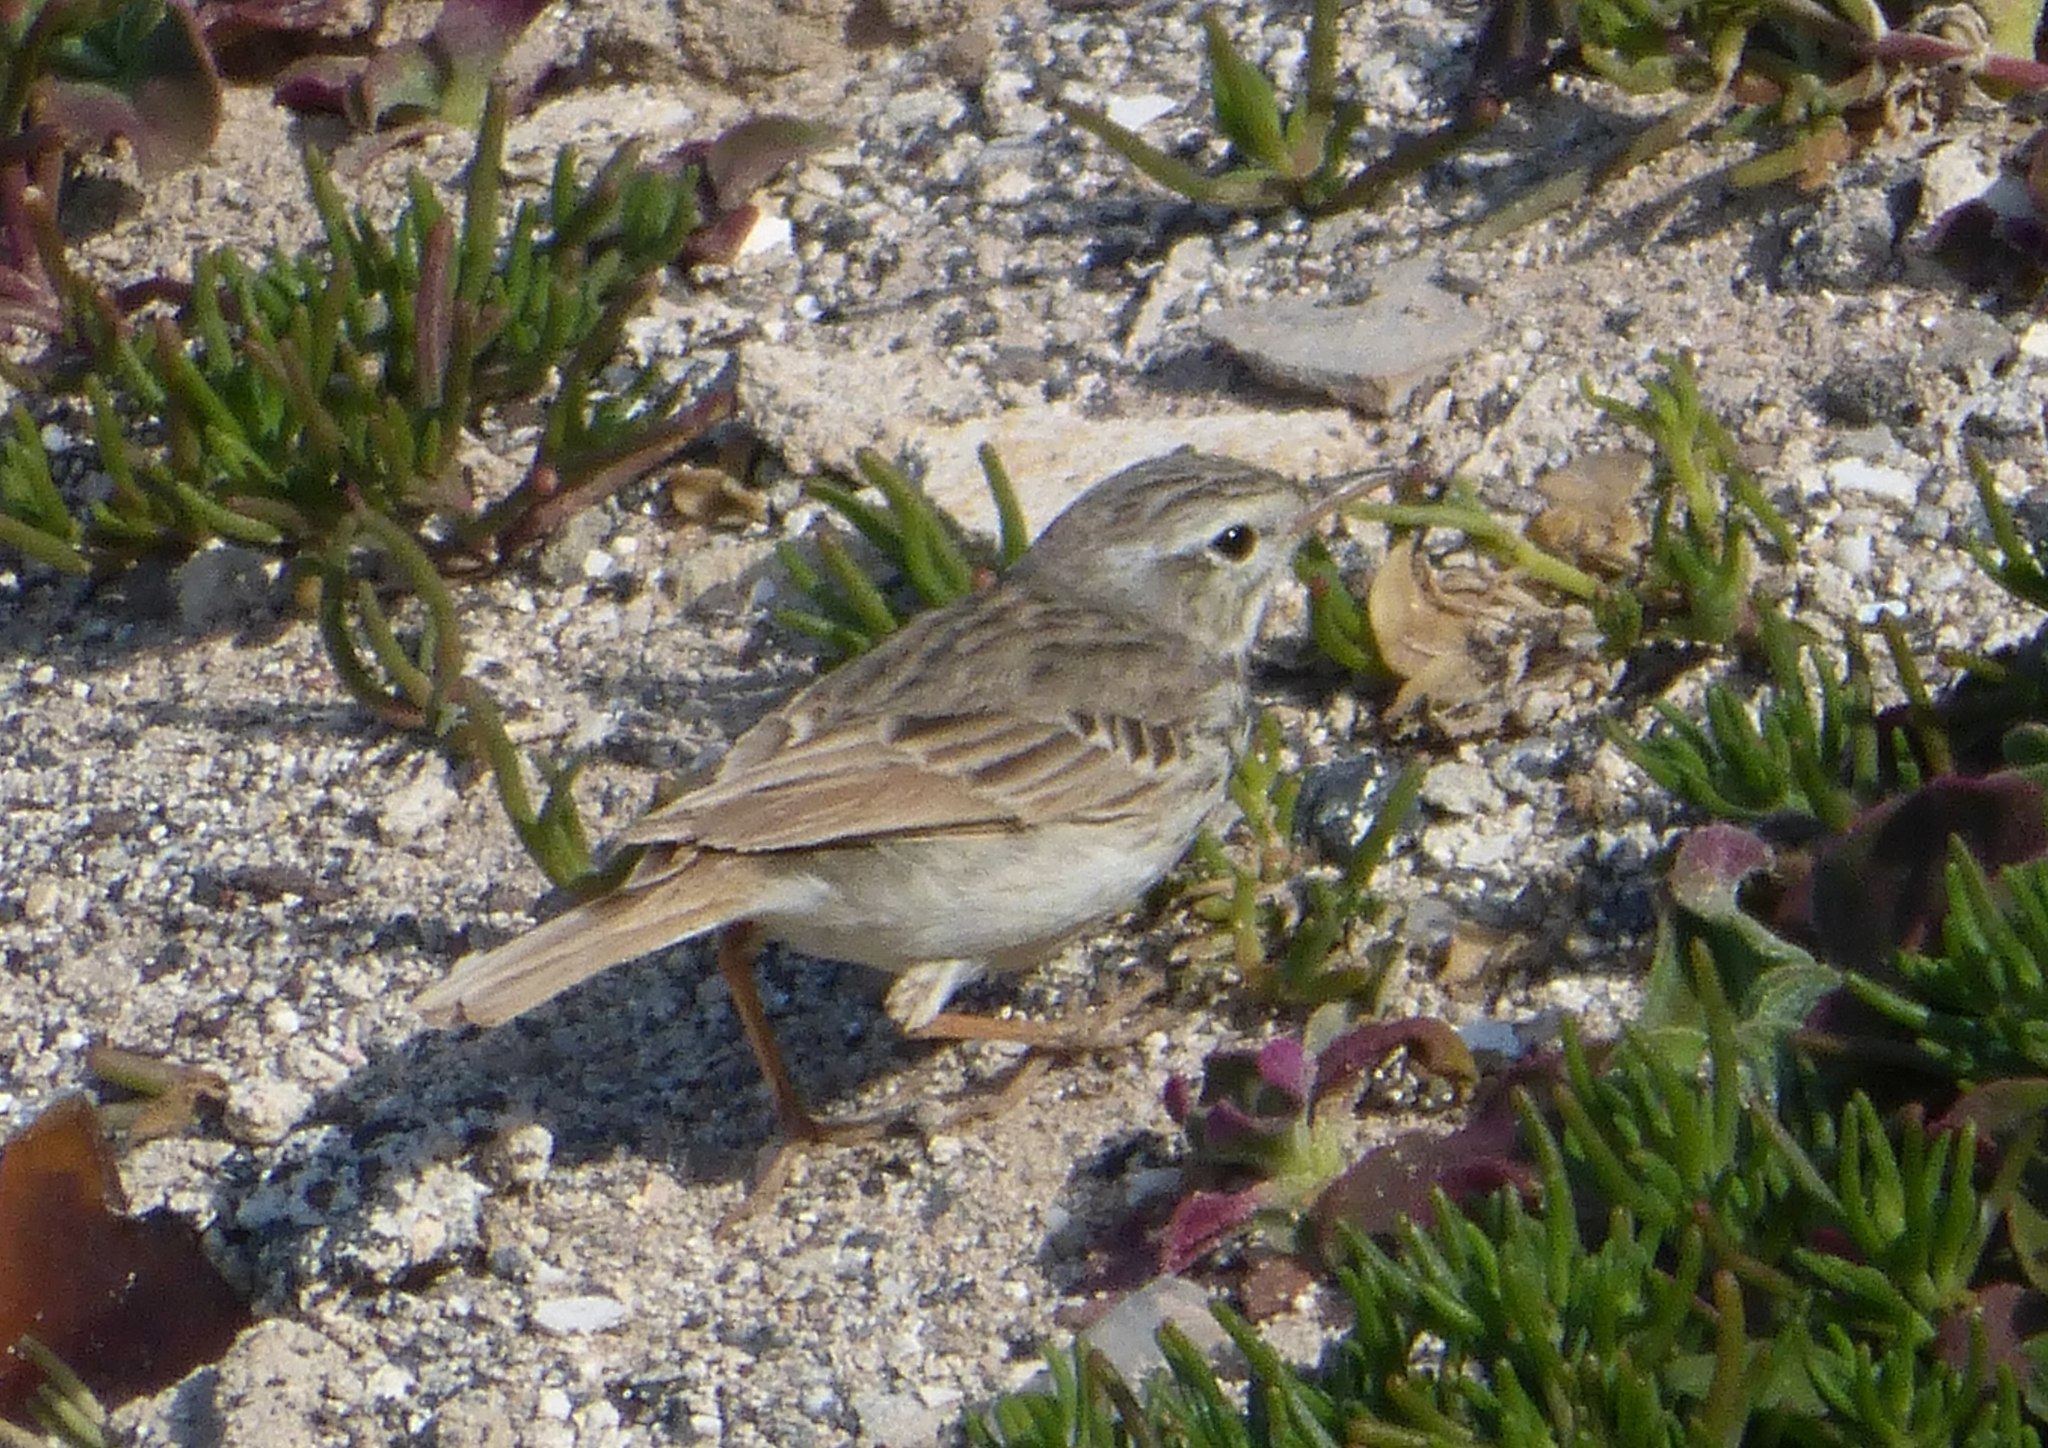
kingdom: Animalia
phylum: Chordata
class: Aves
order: Passeriformes
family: Motacillidae
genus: Anthus
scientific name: Anthus berthelotii
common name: Berthelot's pipit
